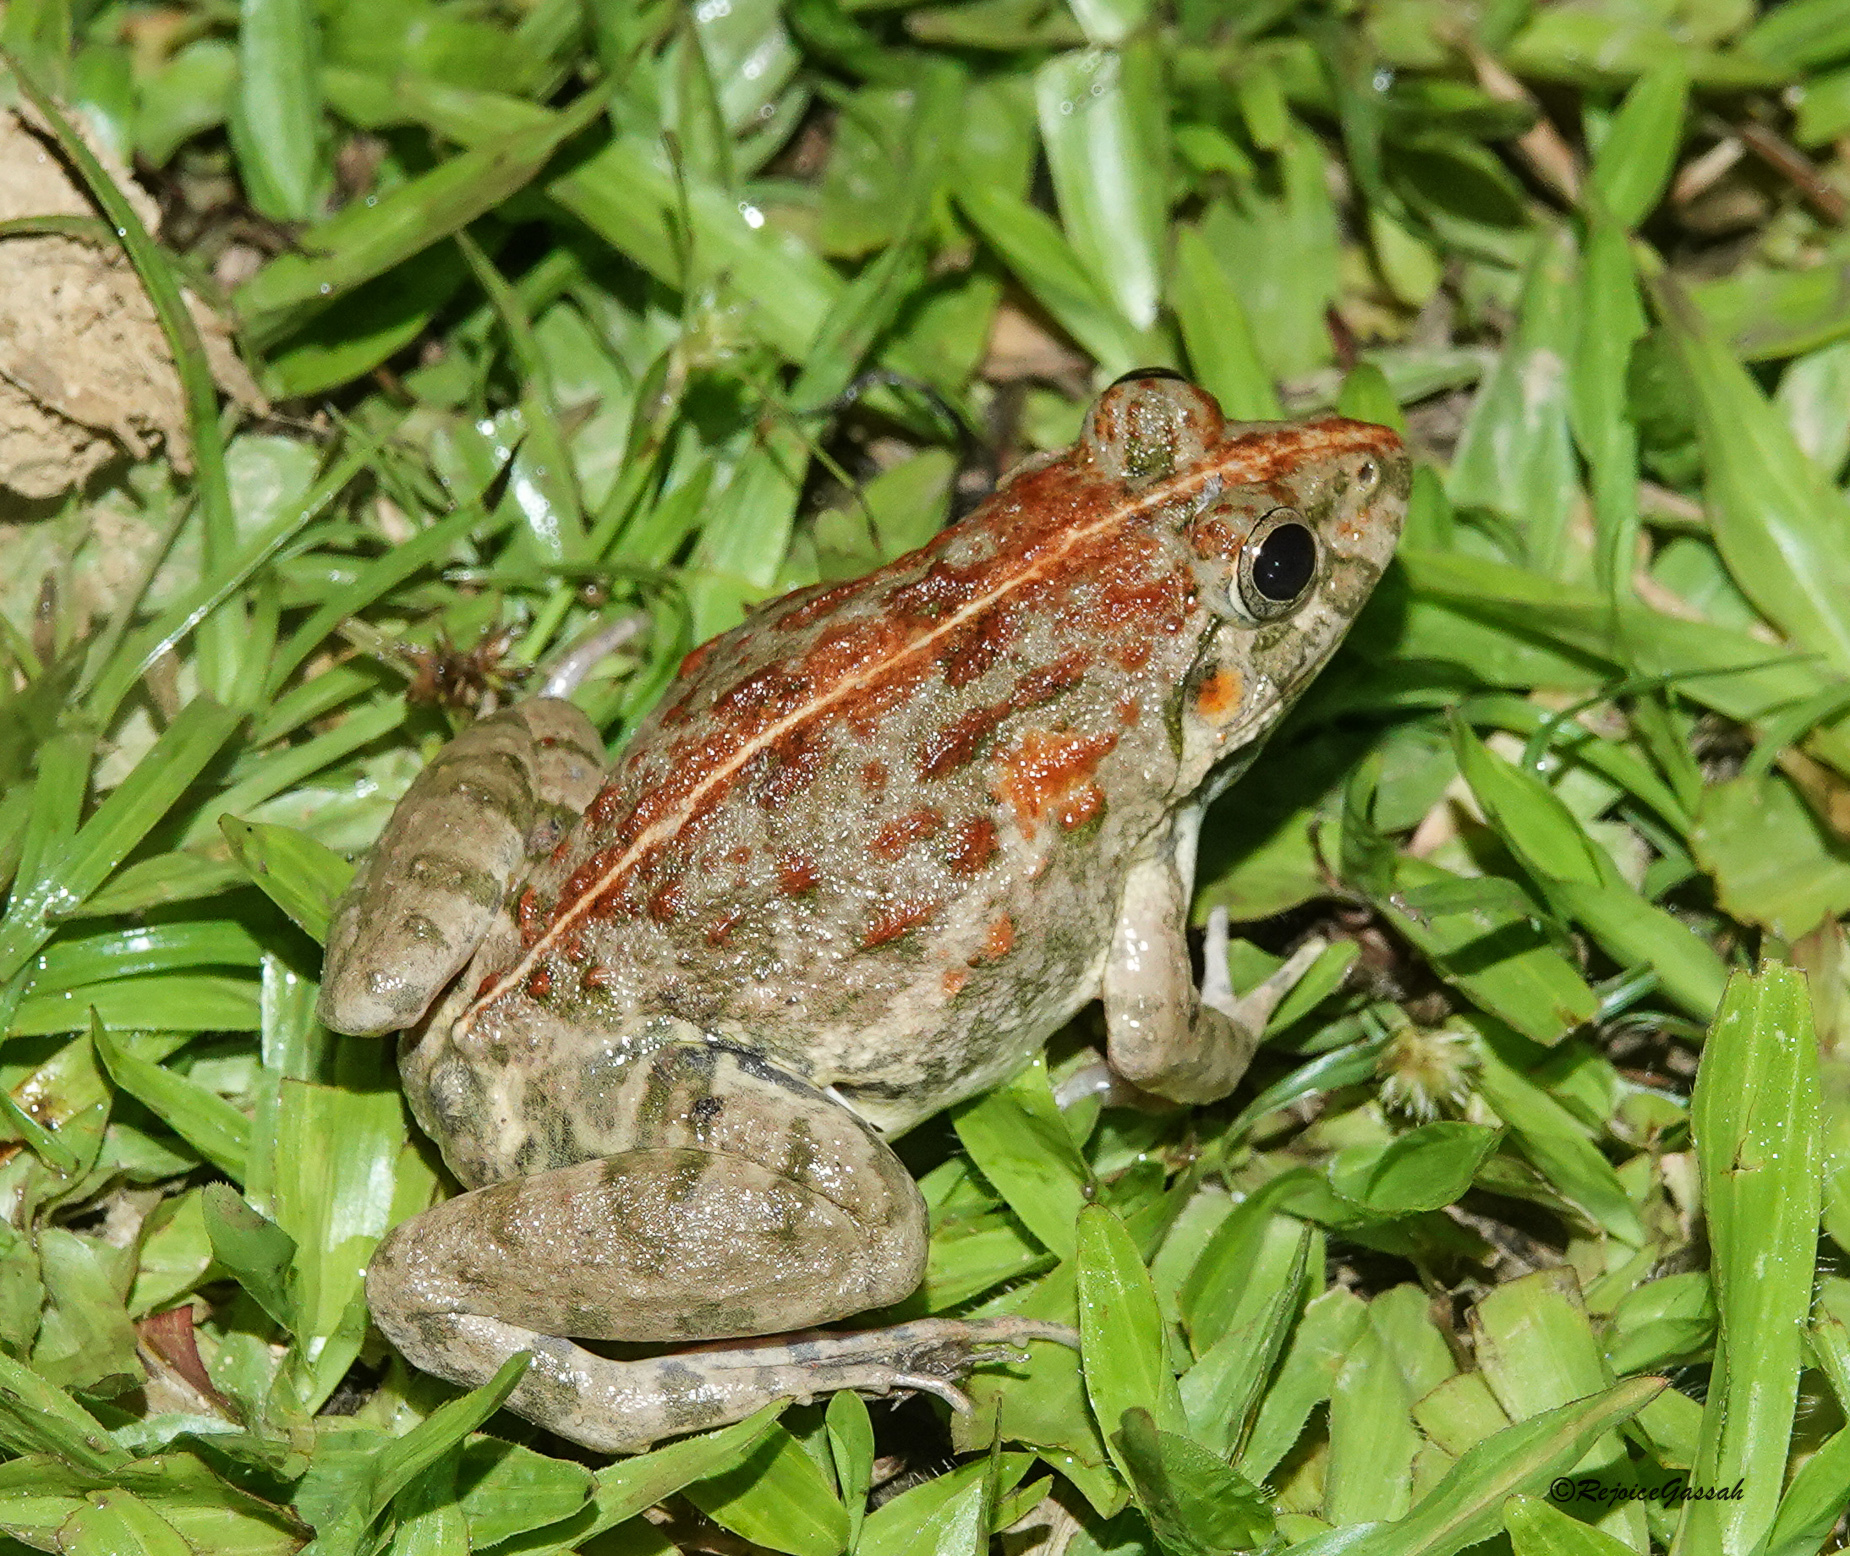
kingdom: Animalia
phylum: Chordata
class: Amphibia
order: Anura
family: Dicroglossidae
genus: Fejervarya
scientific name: Fejervarya limnocharis
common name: Asian grass frog/common pond frog/field frog/grass frog/indian rice frog
